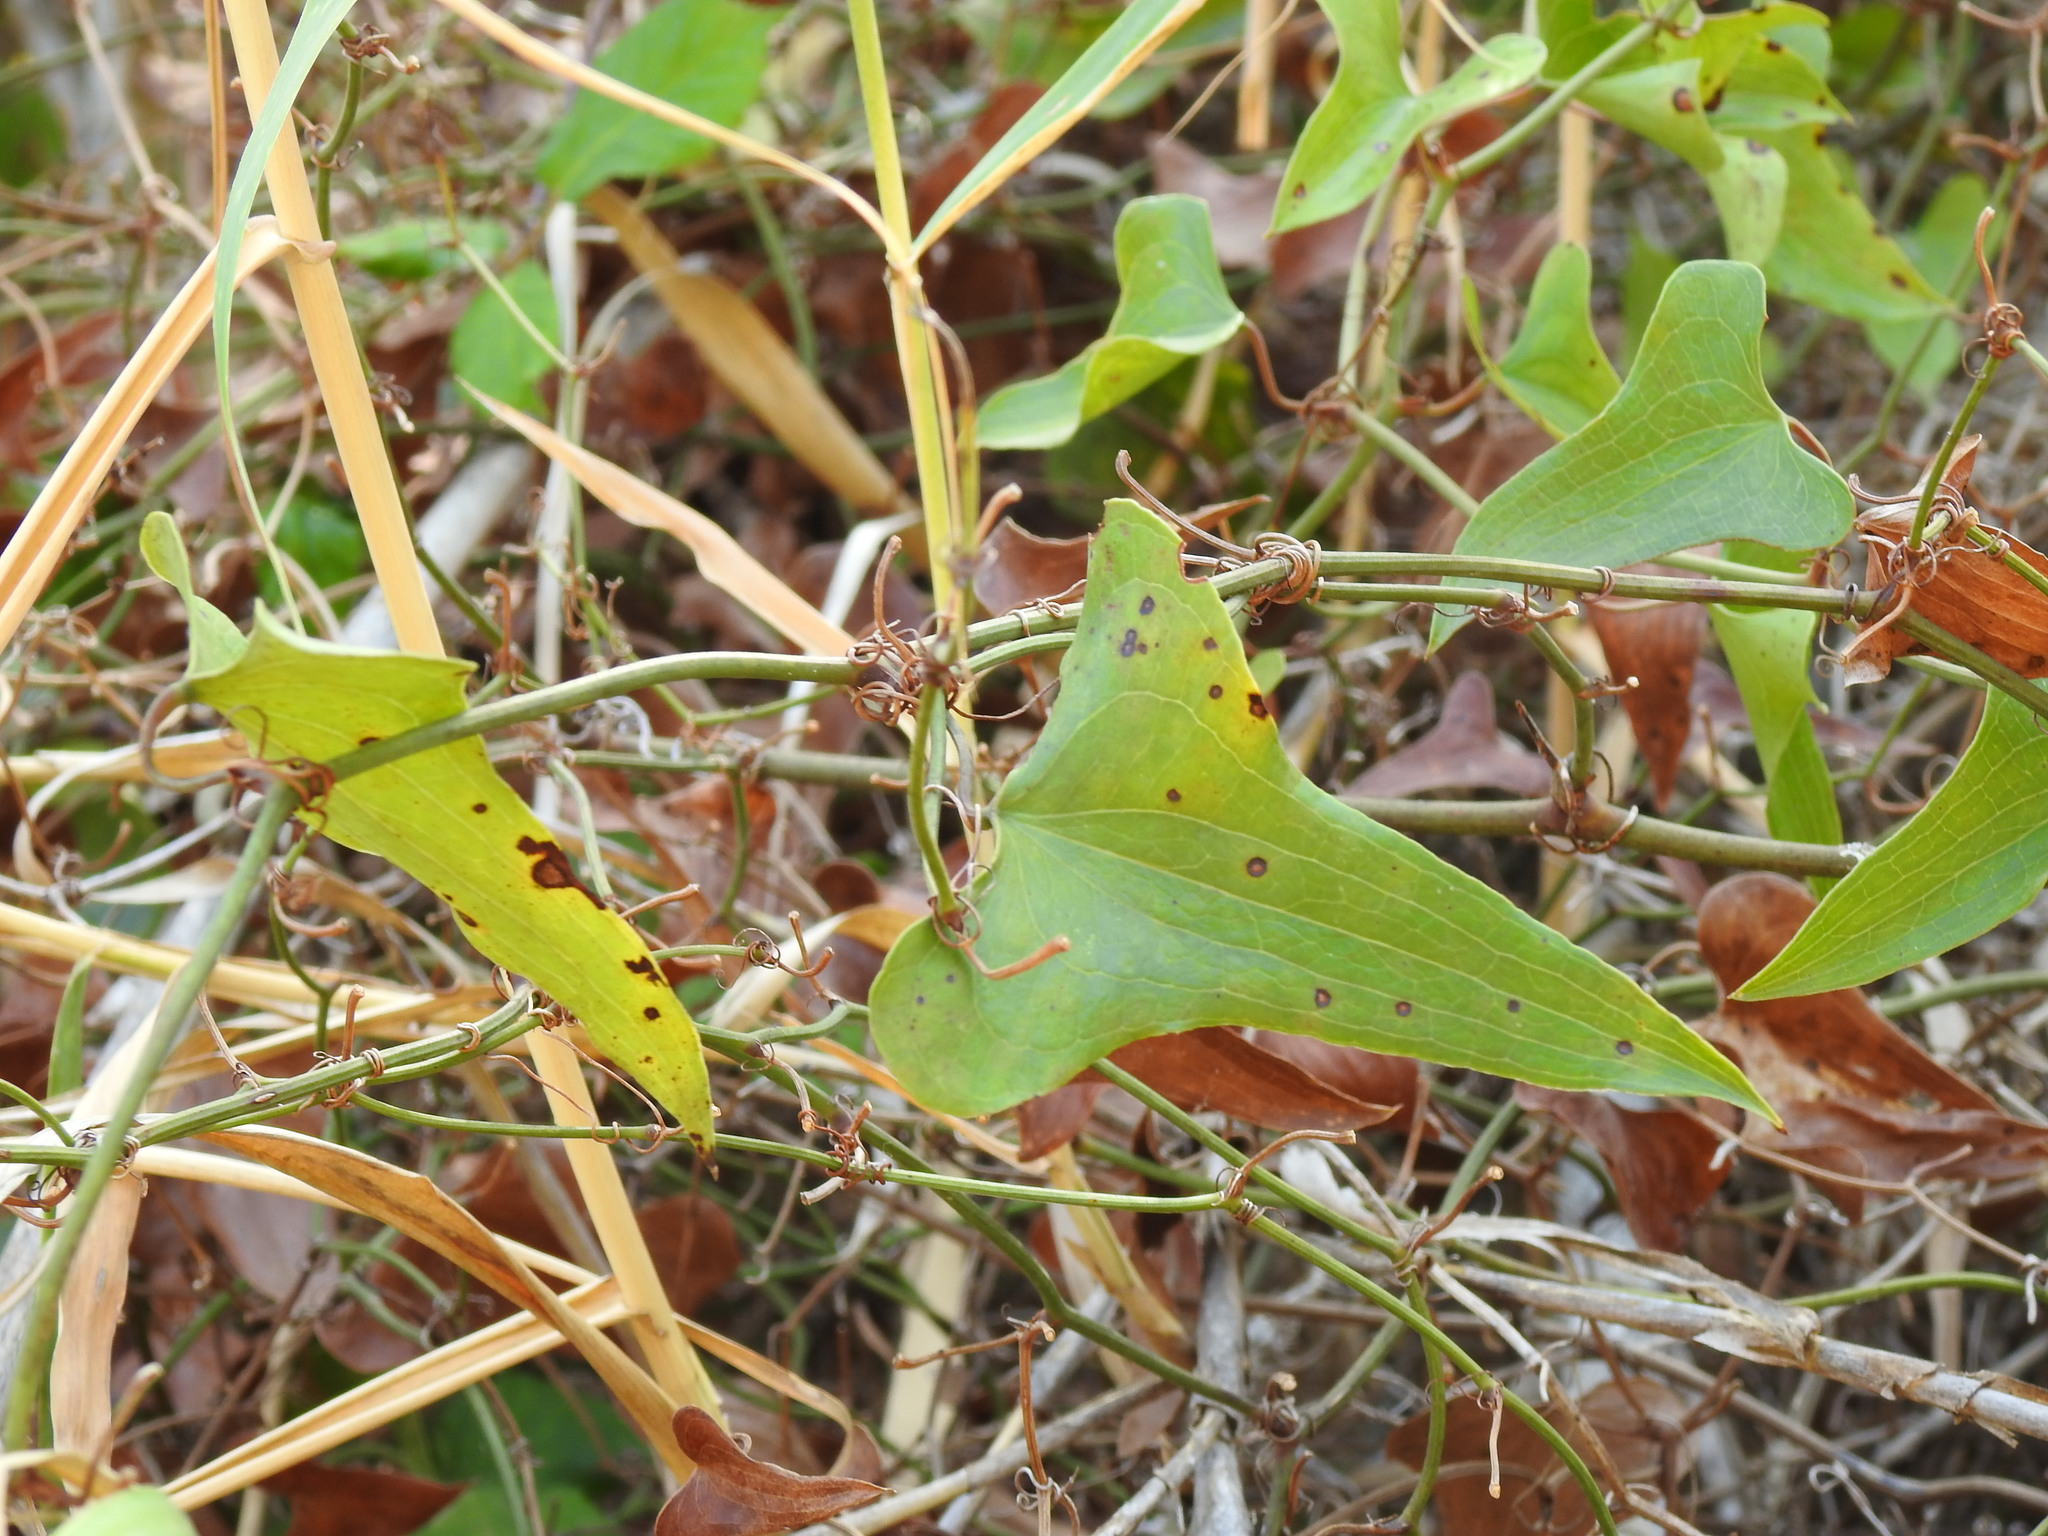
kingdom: Plantae
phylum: Tracheophyta
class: Liliopsida
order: Liliales
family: Smilacaceae
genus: Smilax
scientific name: Smilax aspera
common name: Common smilax
